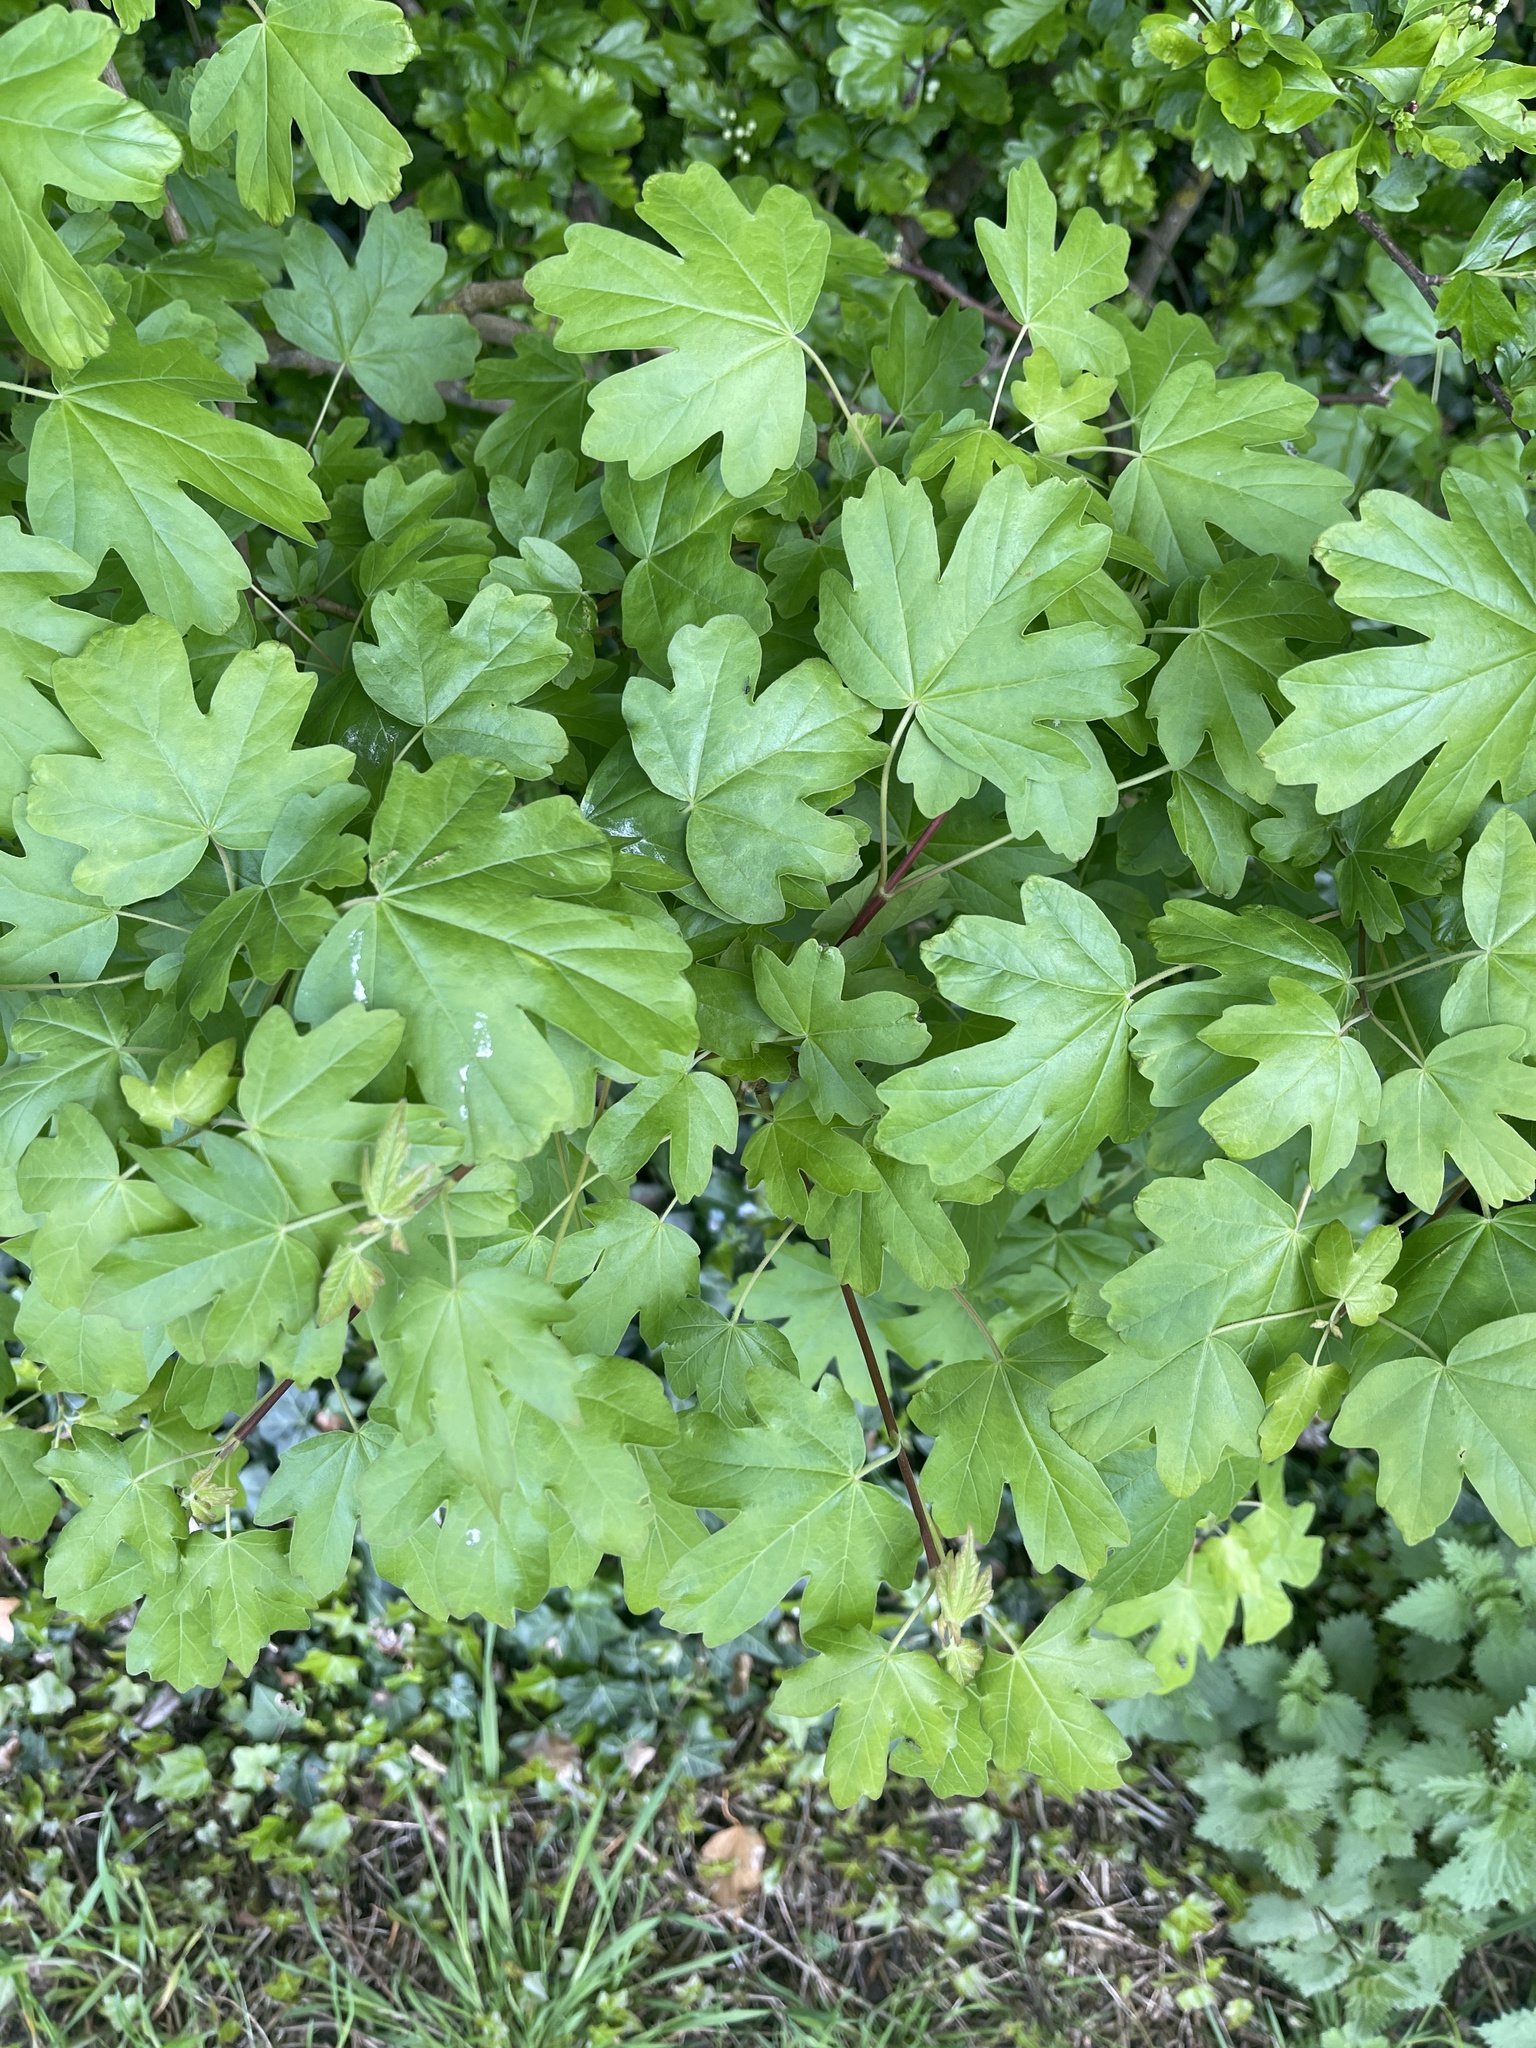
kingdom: Plantae
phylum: Tracheophyta
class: Magnoliopsida
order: Sapindales
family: Sapindaceae
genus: Acer
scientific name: Acer campestre
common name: Field maple
